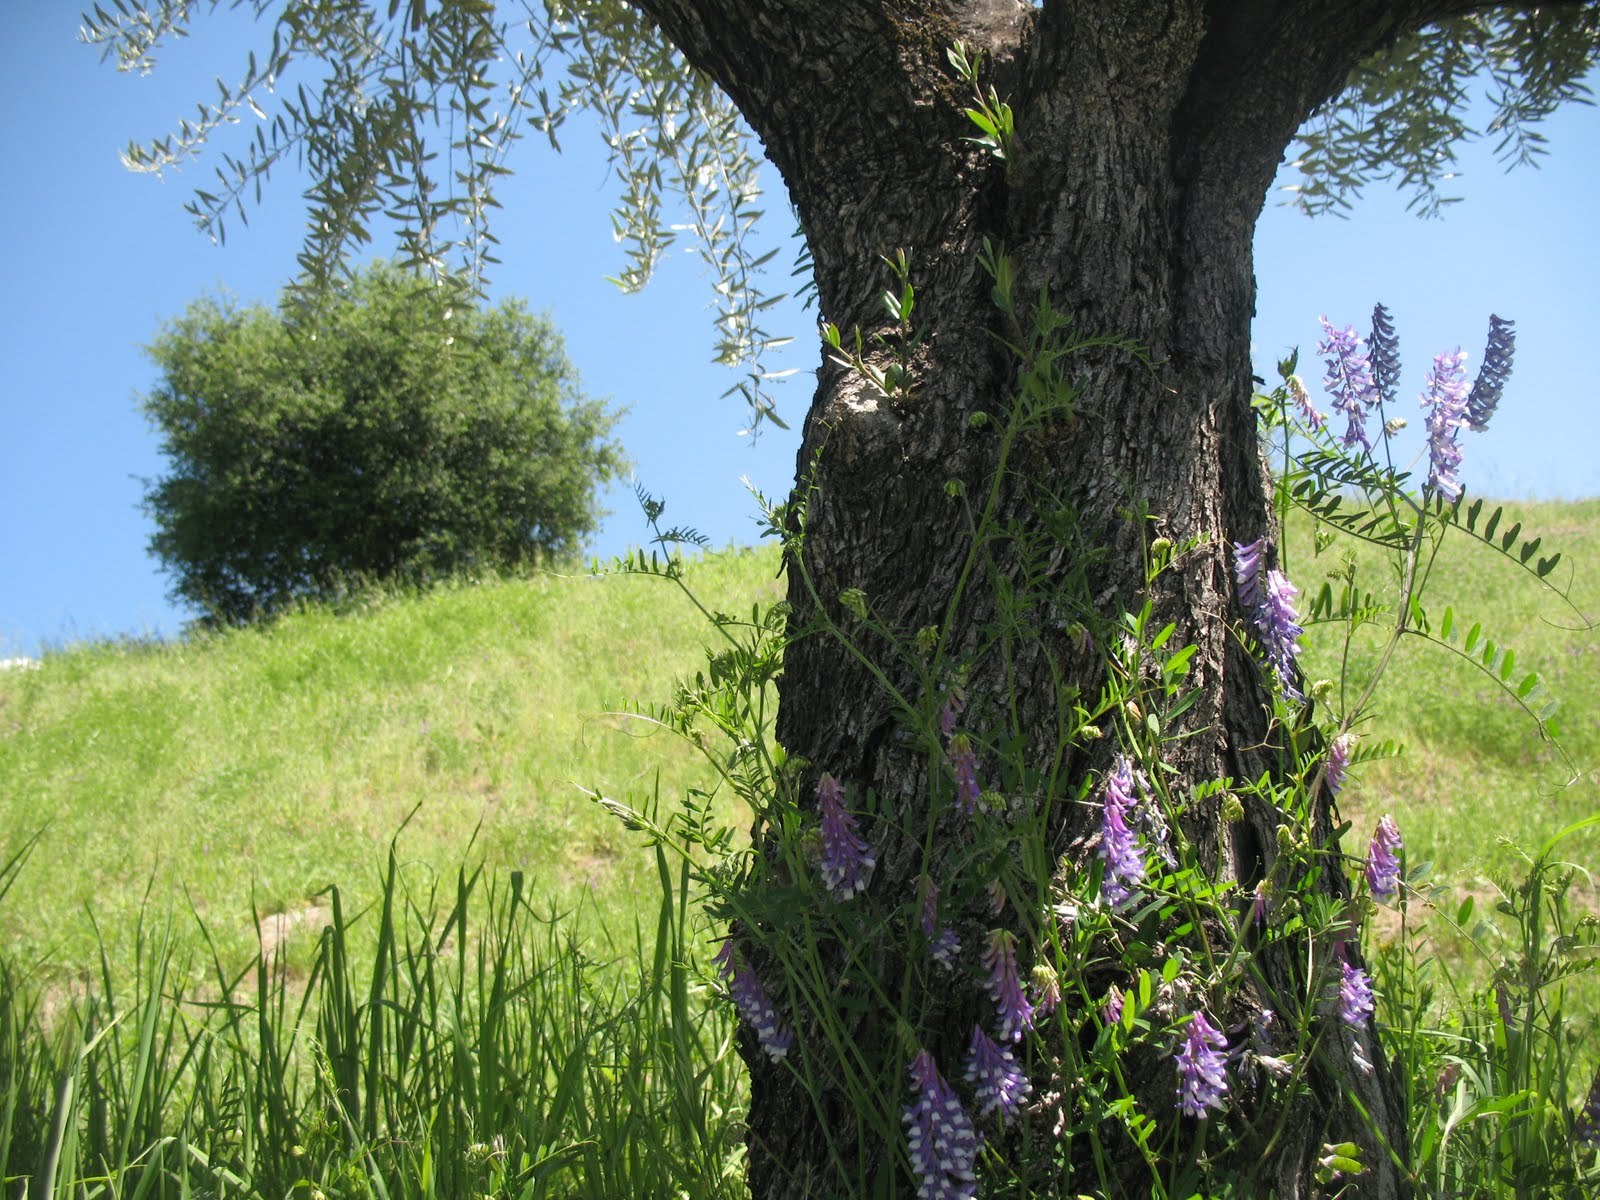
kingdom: Plantae
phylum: Tracheophyta
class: Magnoliopsida
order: Fabales
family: Fabaceae
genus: Vicia
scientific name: Vicia villosa
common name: Fodder vetch
